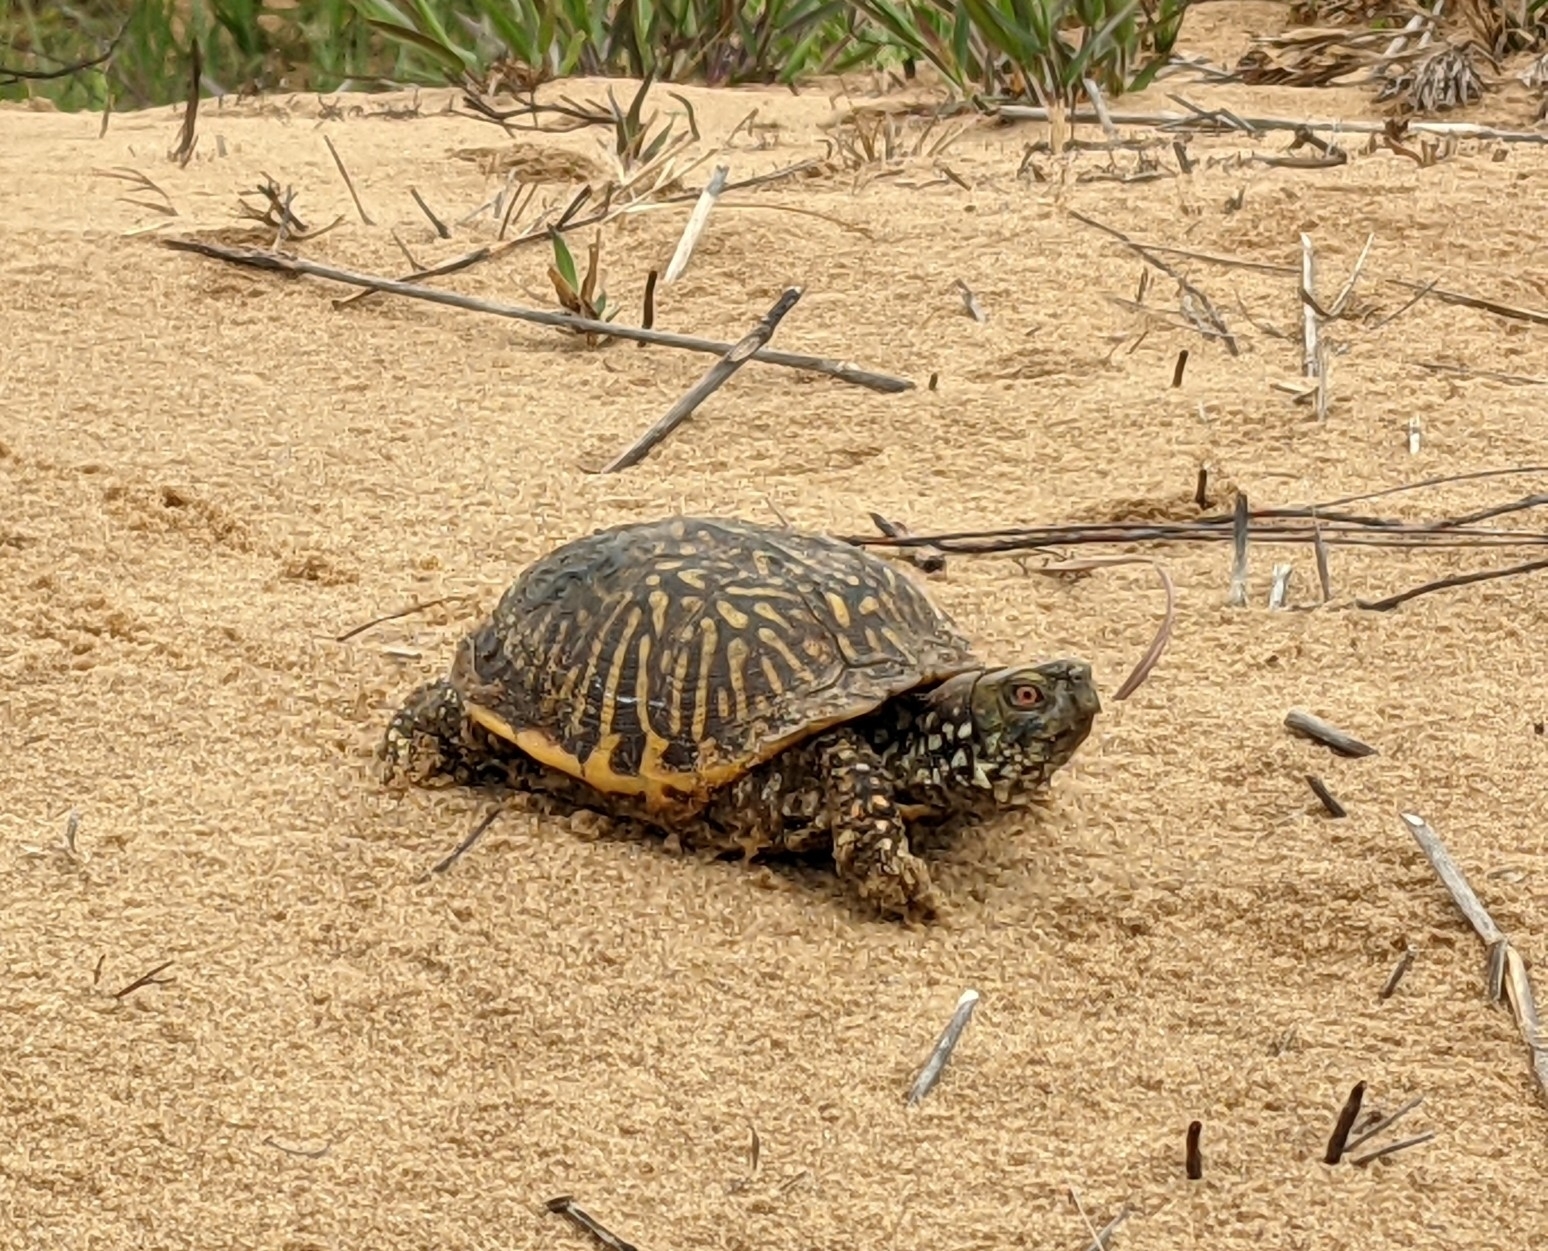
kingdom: Animalia
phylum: Chordata
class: Testudines
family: Emydidae
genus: Terrapene
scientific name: Terrapene ornata
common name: Western box turtle
